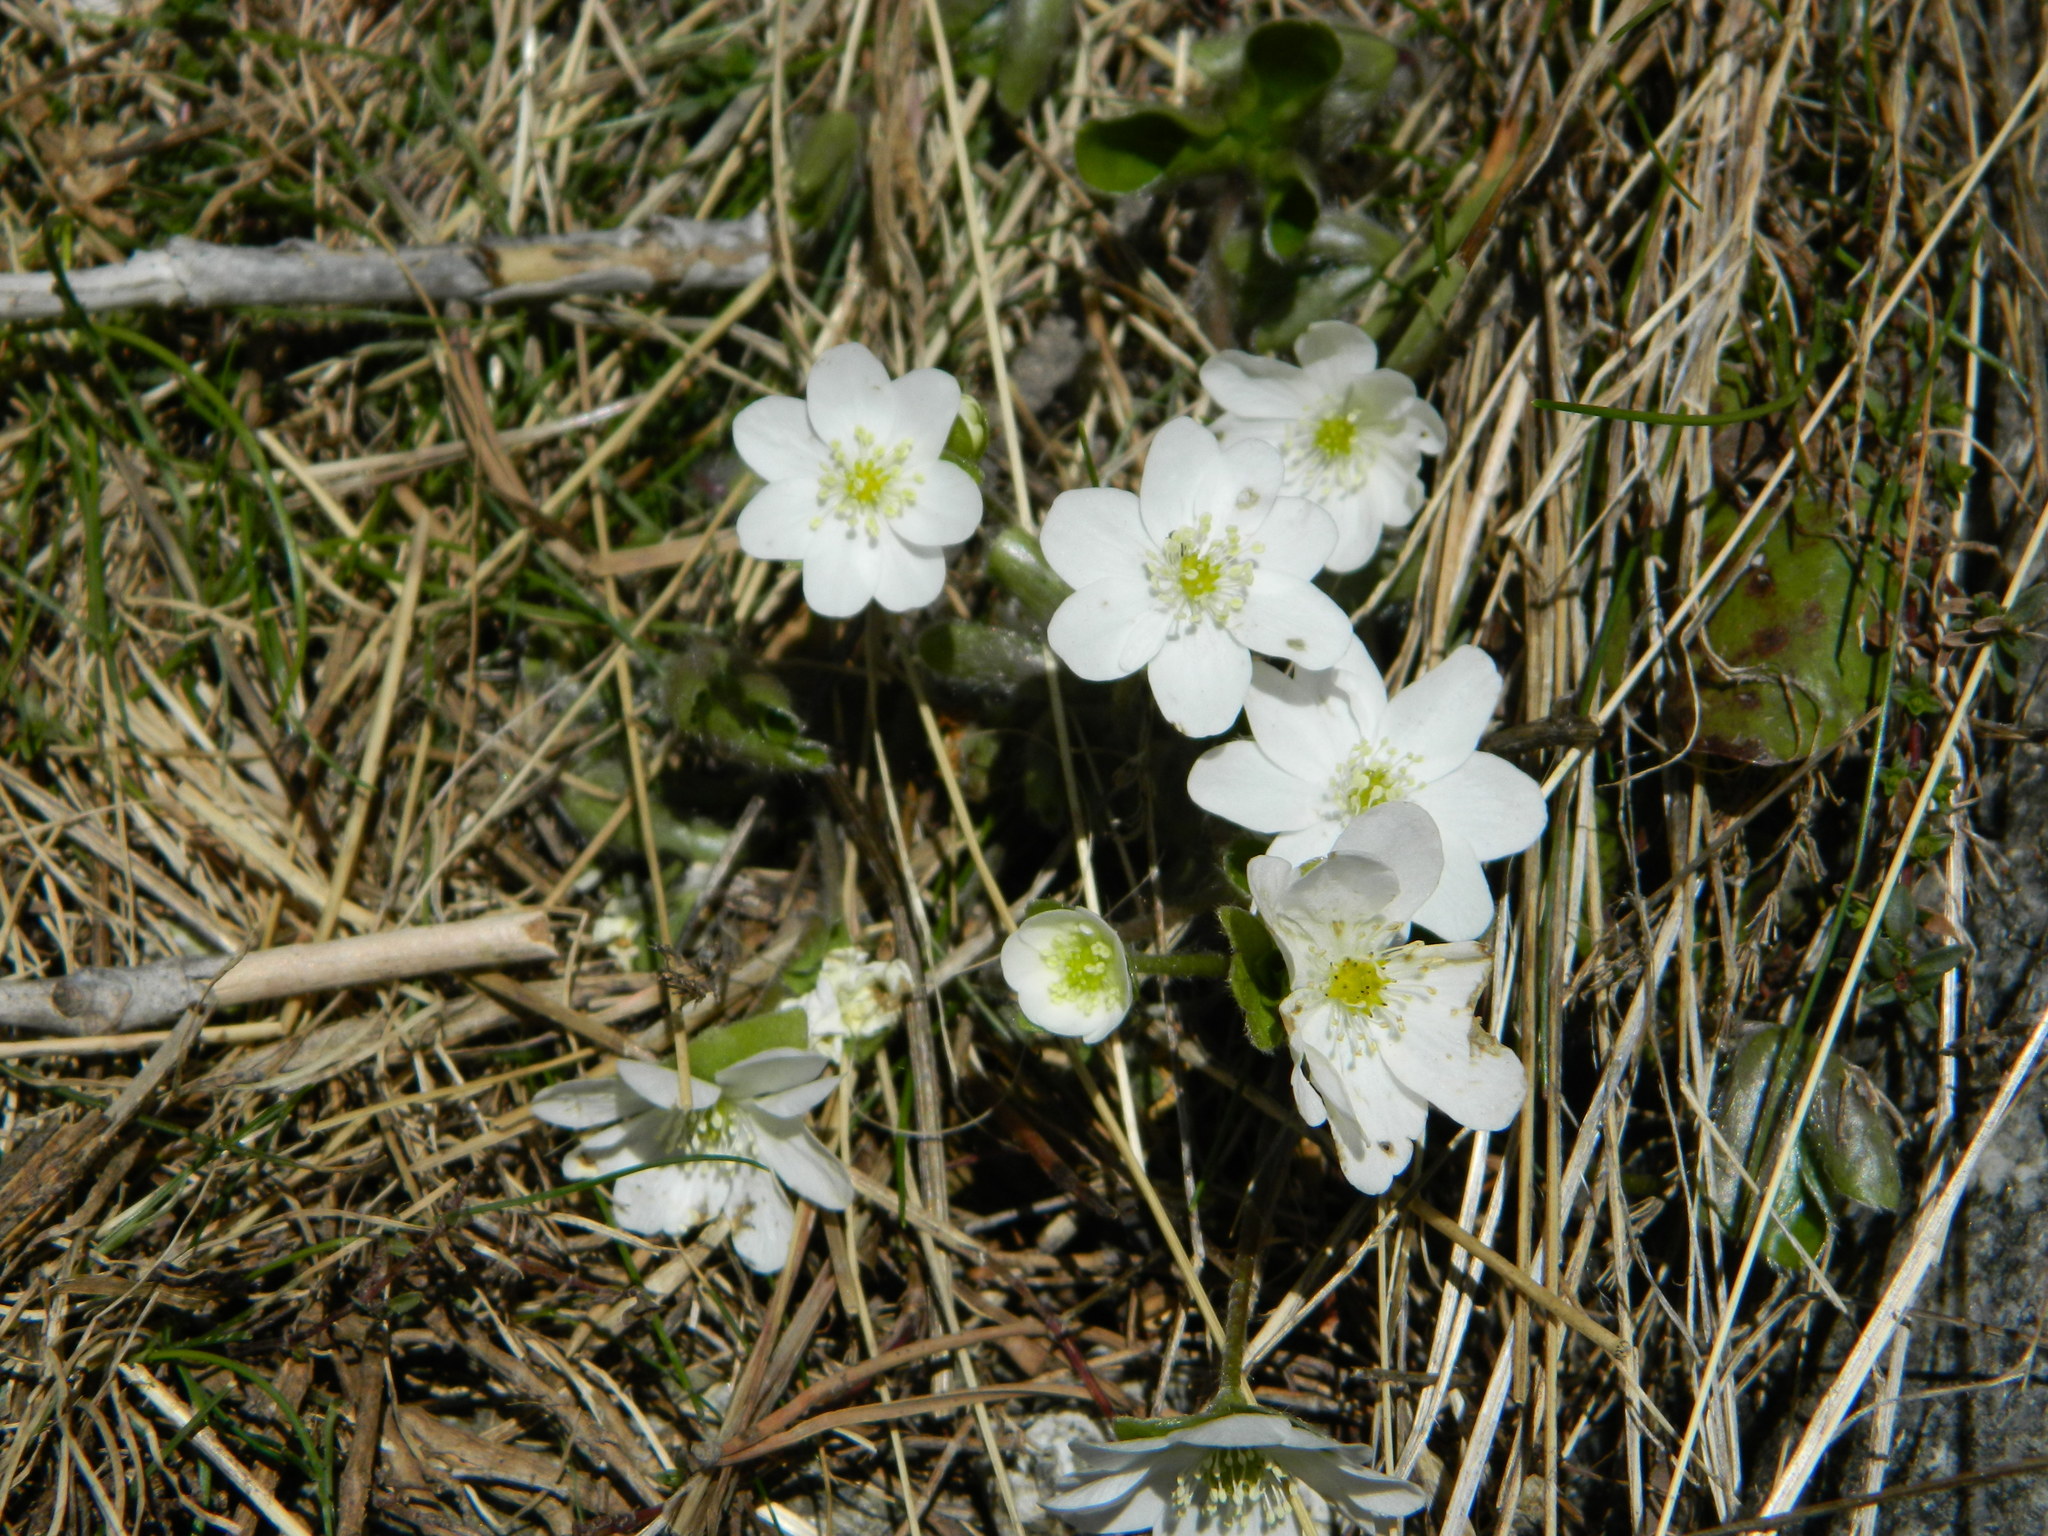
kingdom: Plantae
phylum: Tracheophyta
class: Magnoliopsida
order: Ranunculales
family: Ranunculaceae
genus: Hepatica
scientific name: Hepatica nobilis
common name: Liverleaf
